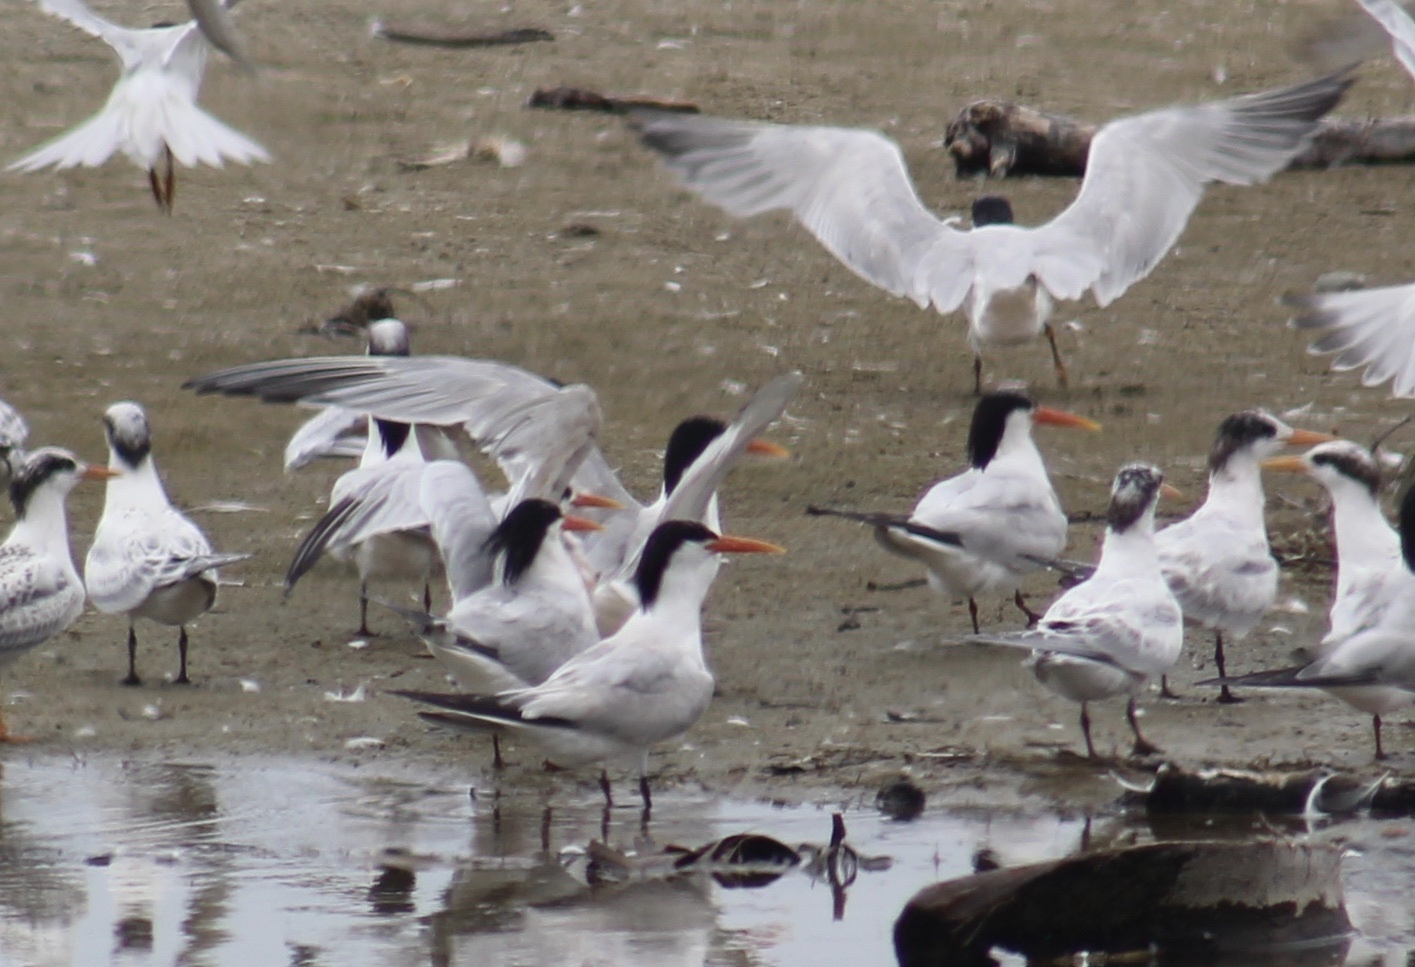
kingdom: Animalia
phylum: Chordata
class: Aves
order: Charadriiformes
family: Laridae
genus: Thalasseus
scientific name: Thalasseus elegans
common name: Elegant tern
